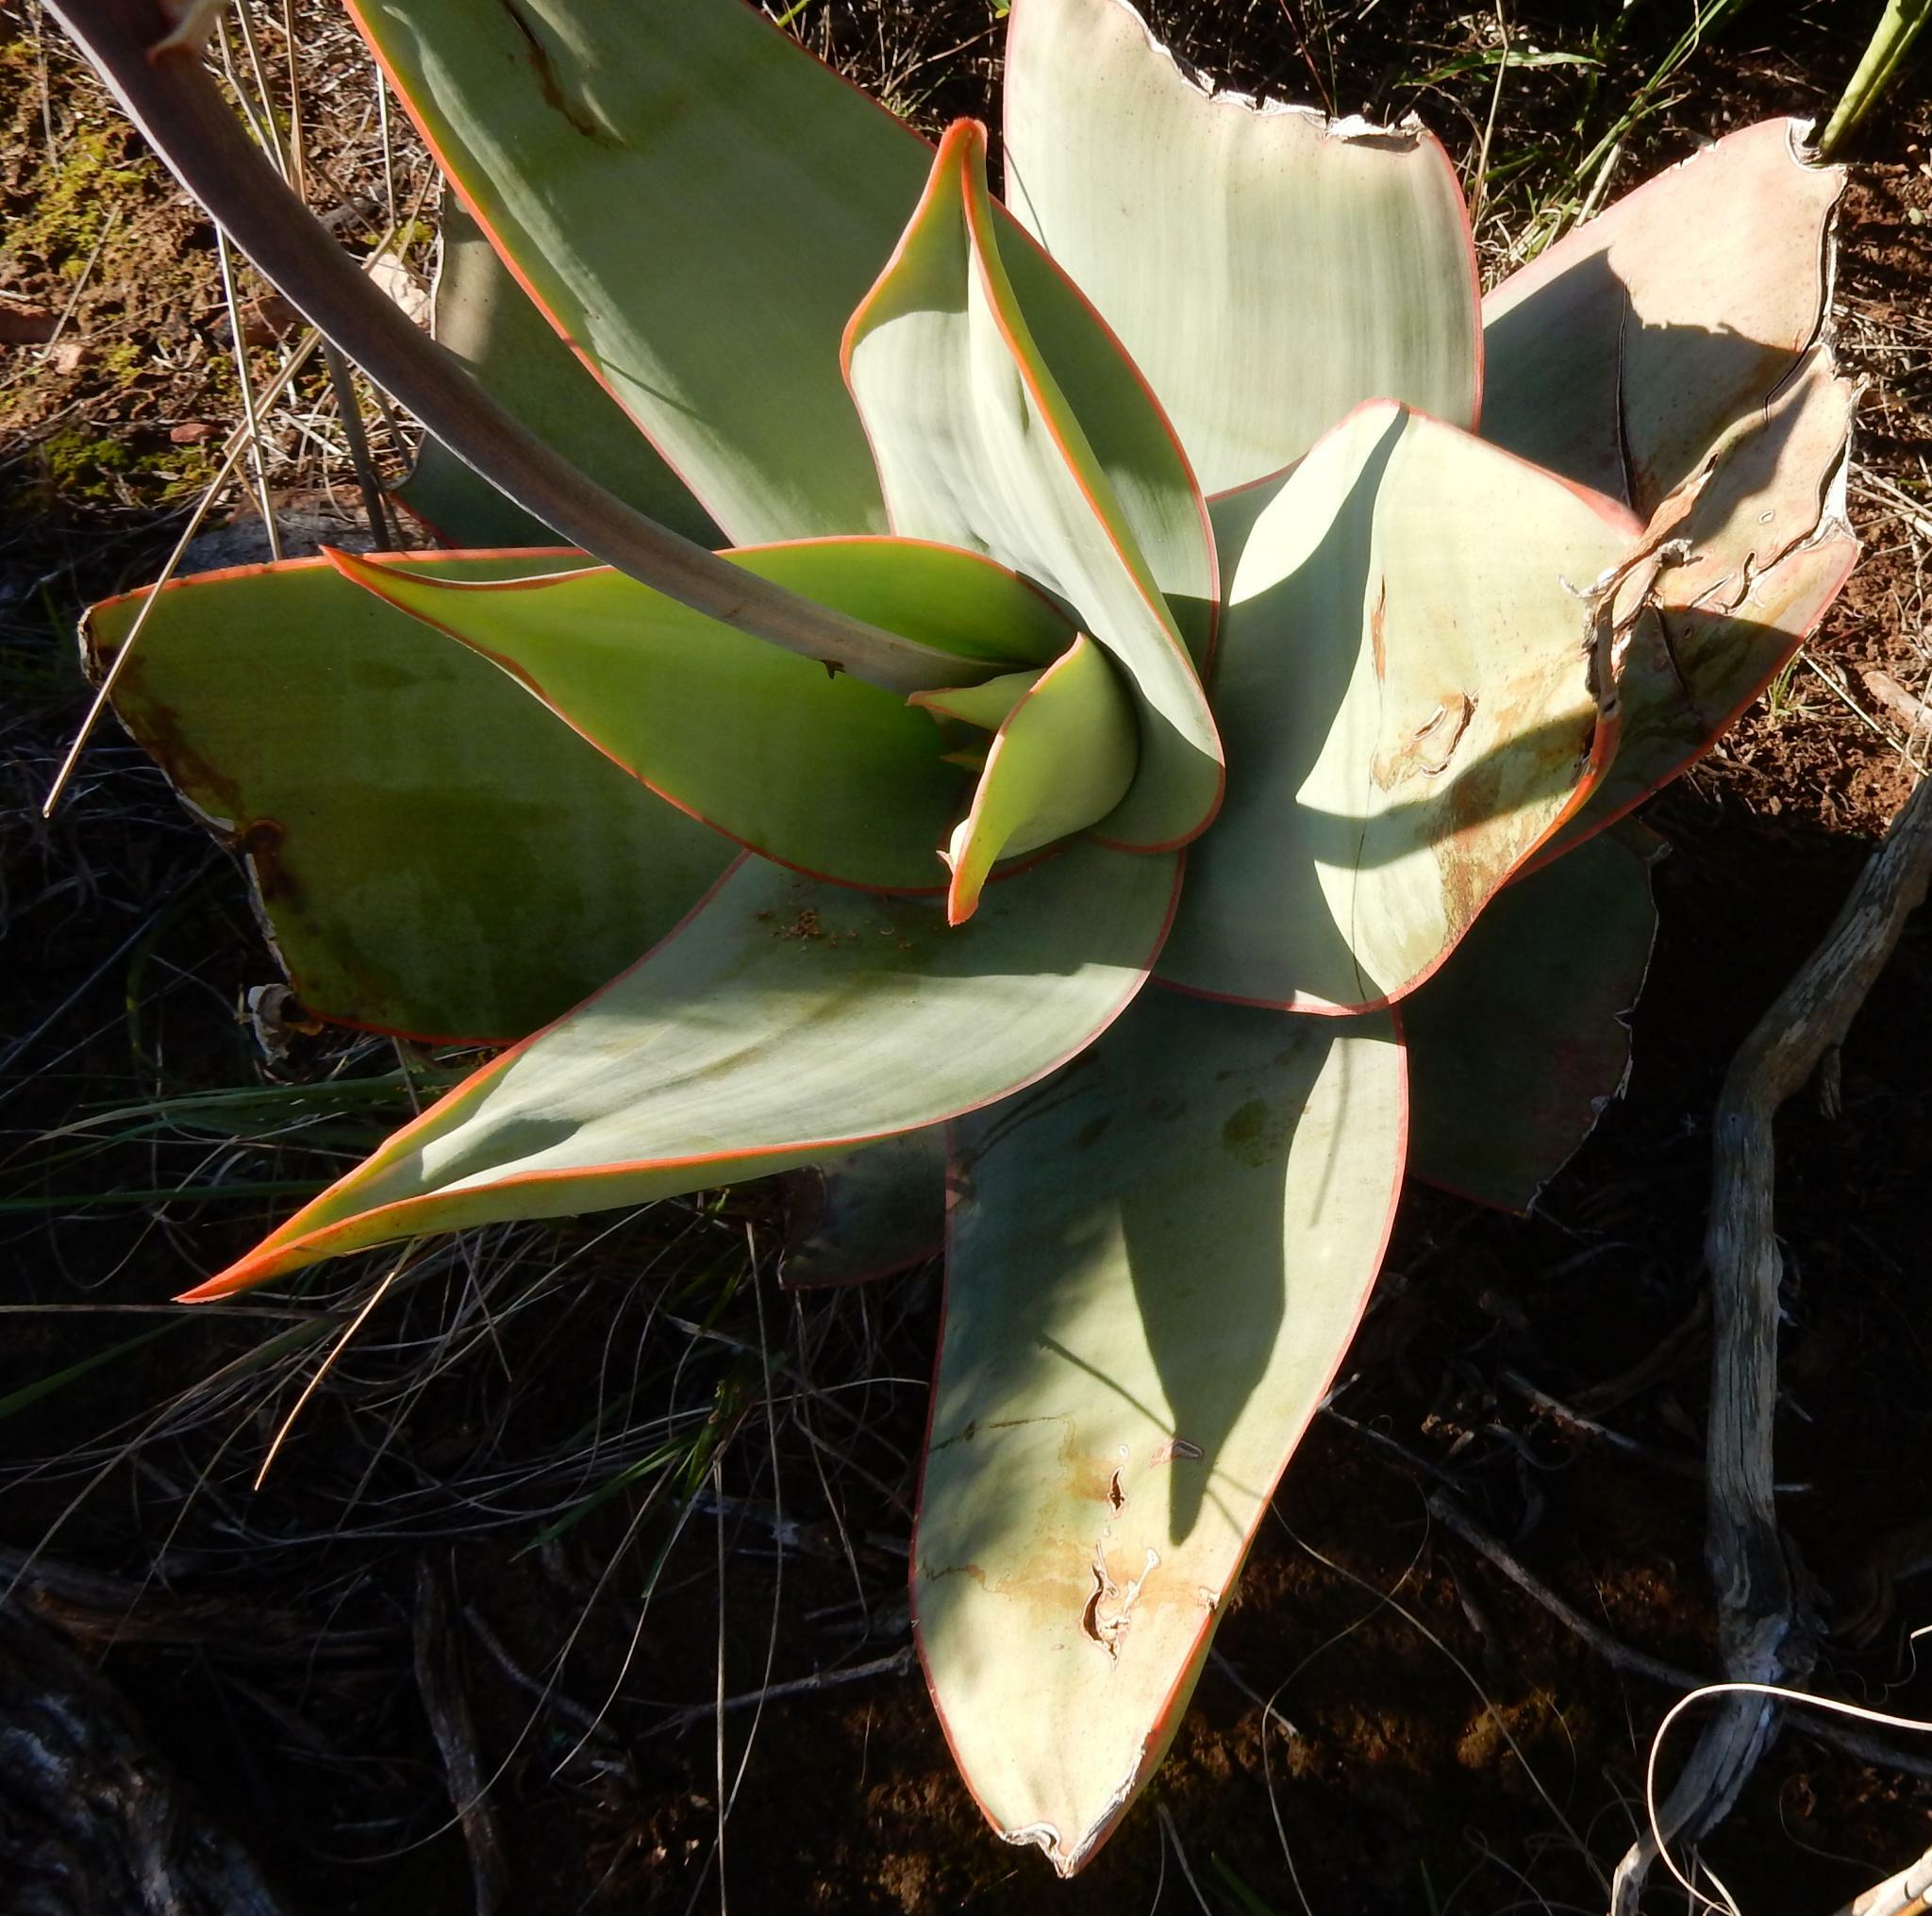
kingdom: Plantae
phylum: Tracheophyta
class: Liliopsida
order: Asparagales
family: Asphodelaceae
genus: Aloe
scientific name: Aloe striata
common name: Coral aloe
